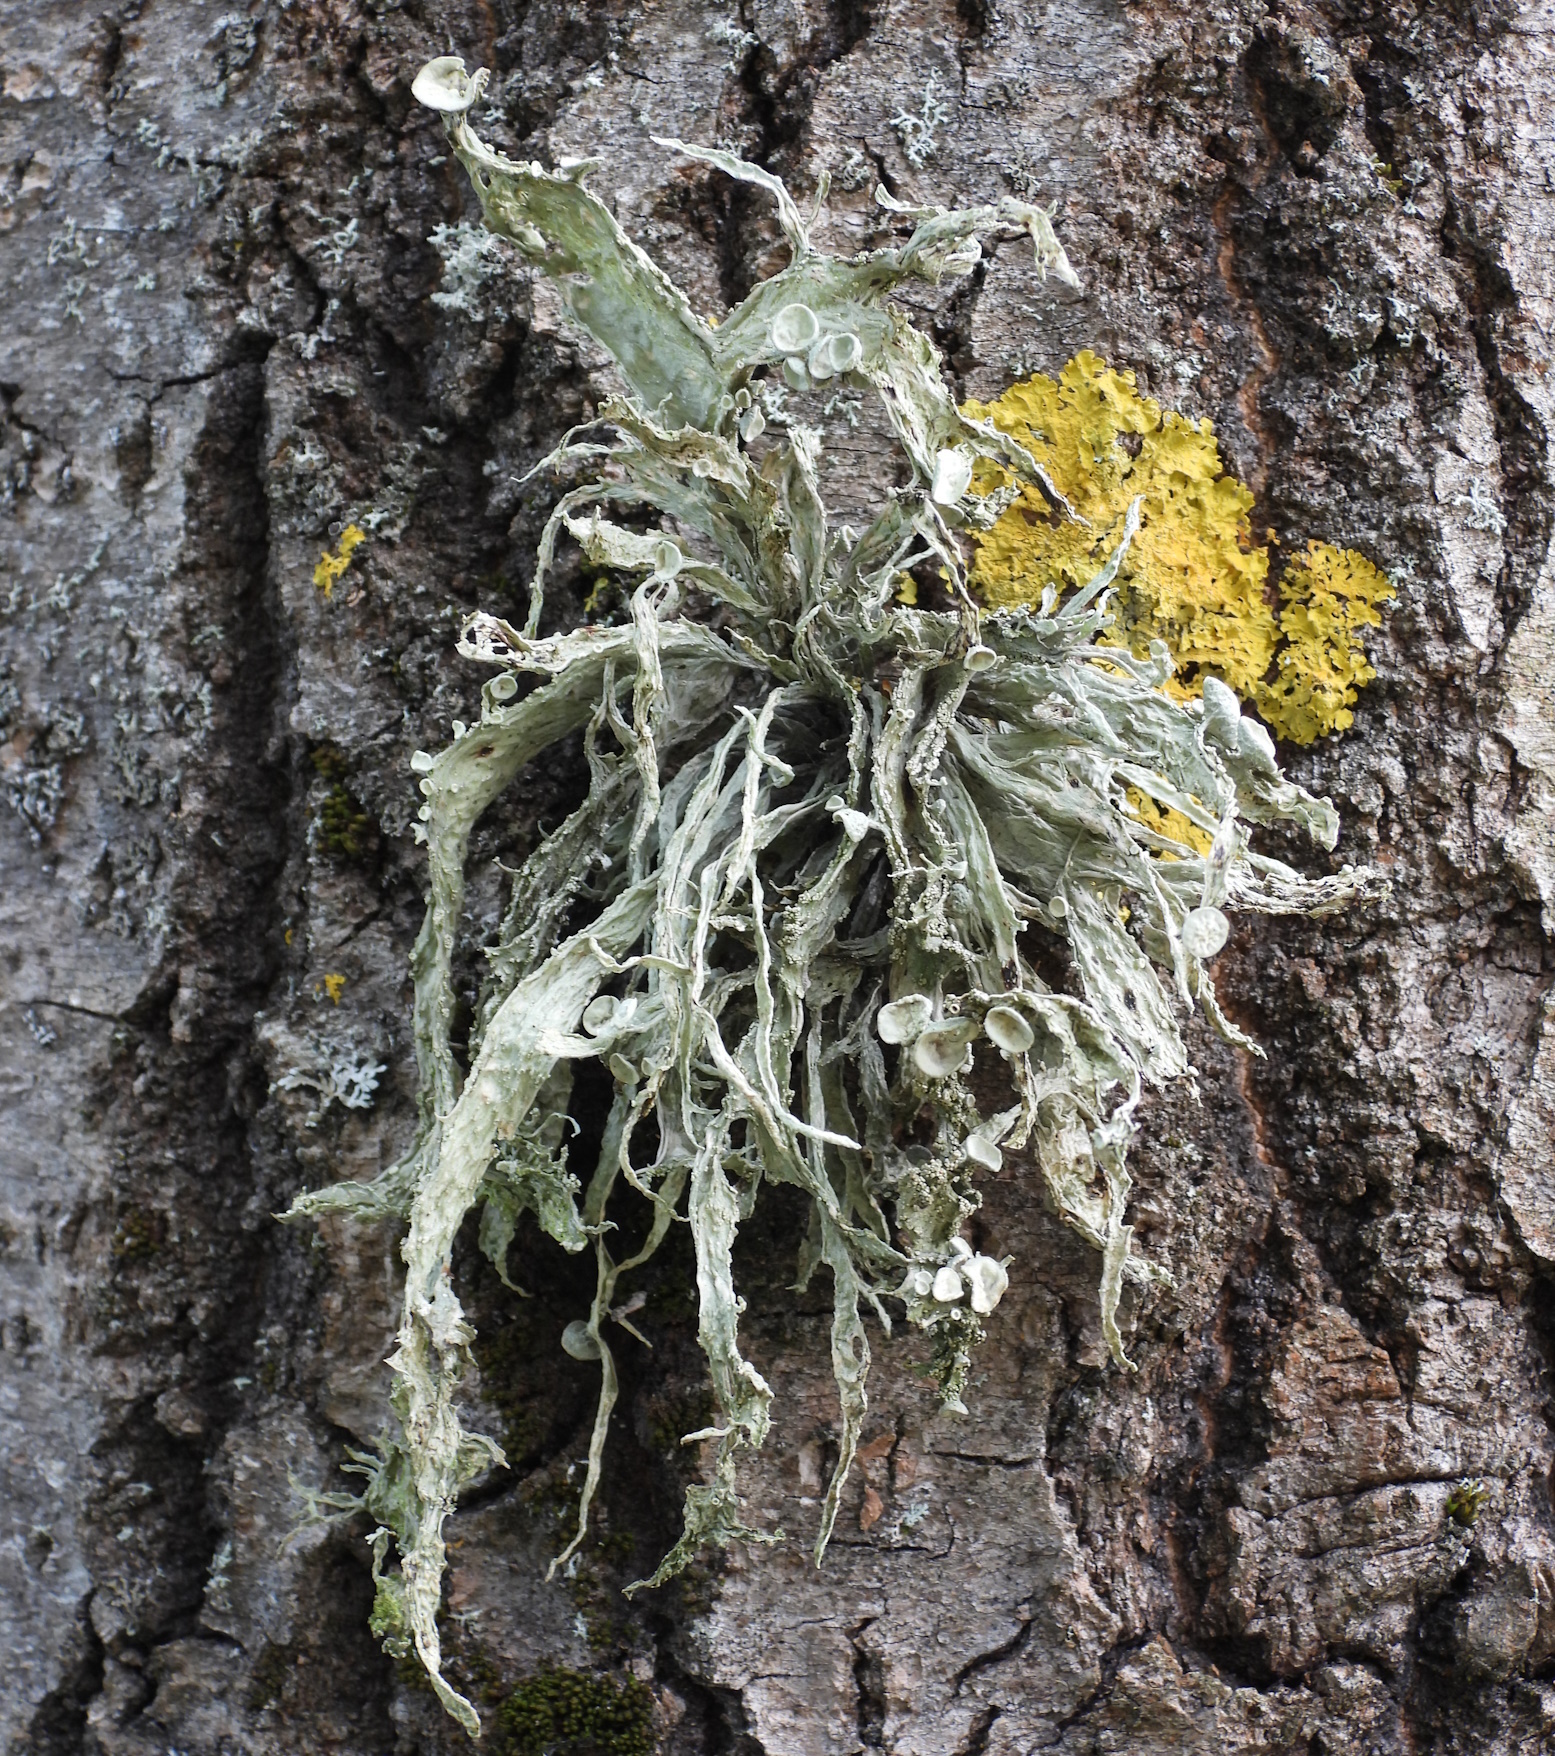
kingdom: Fungi
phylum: Ascomycota
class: Lecanoromycetes
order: Lecanorales
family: Ramalinaceae
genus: Ramalina
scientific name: Ramalina fraxinea
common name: Cartilage lichen
